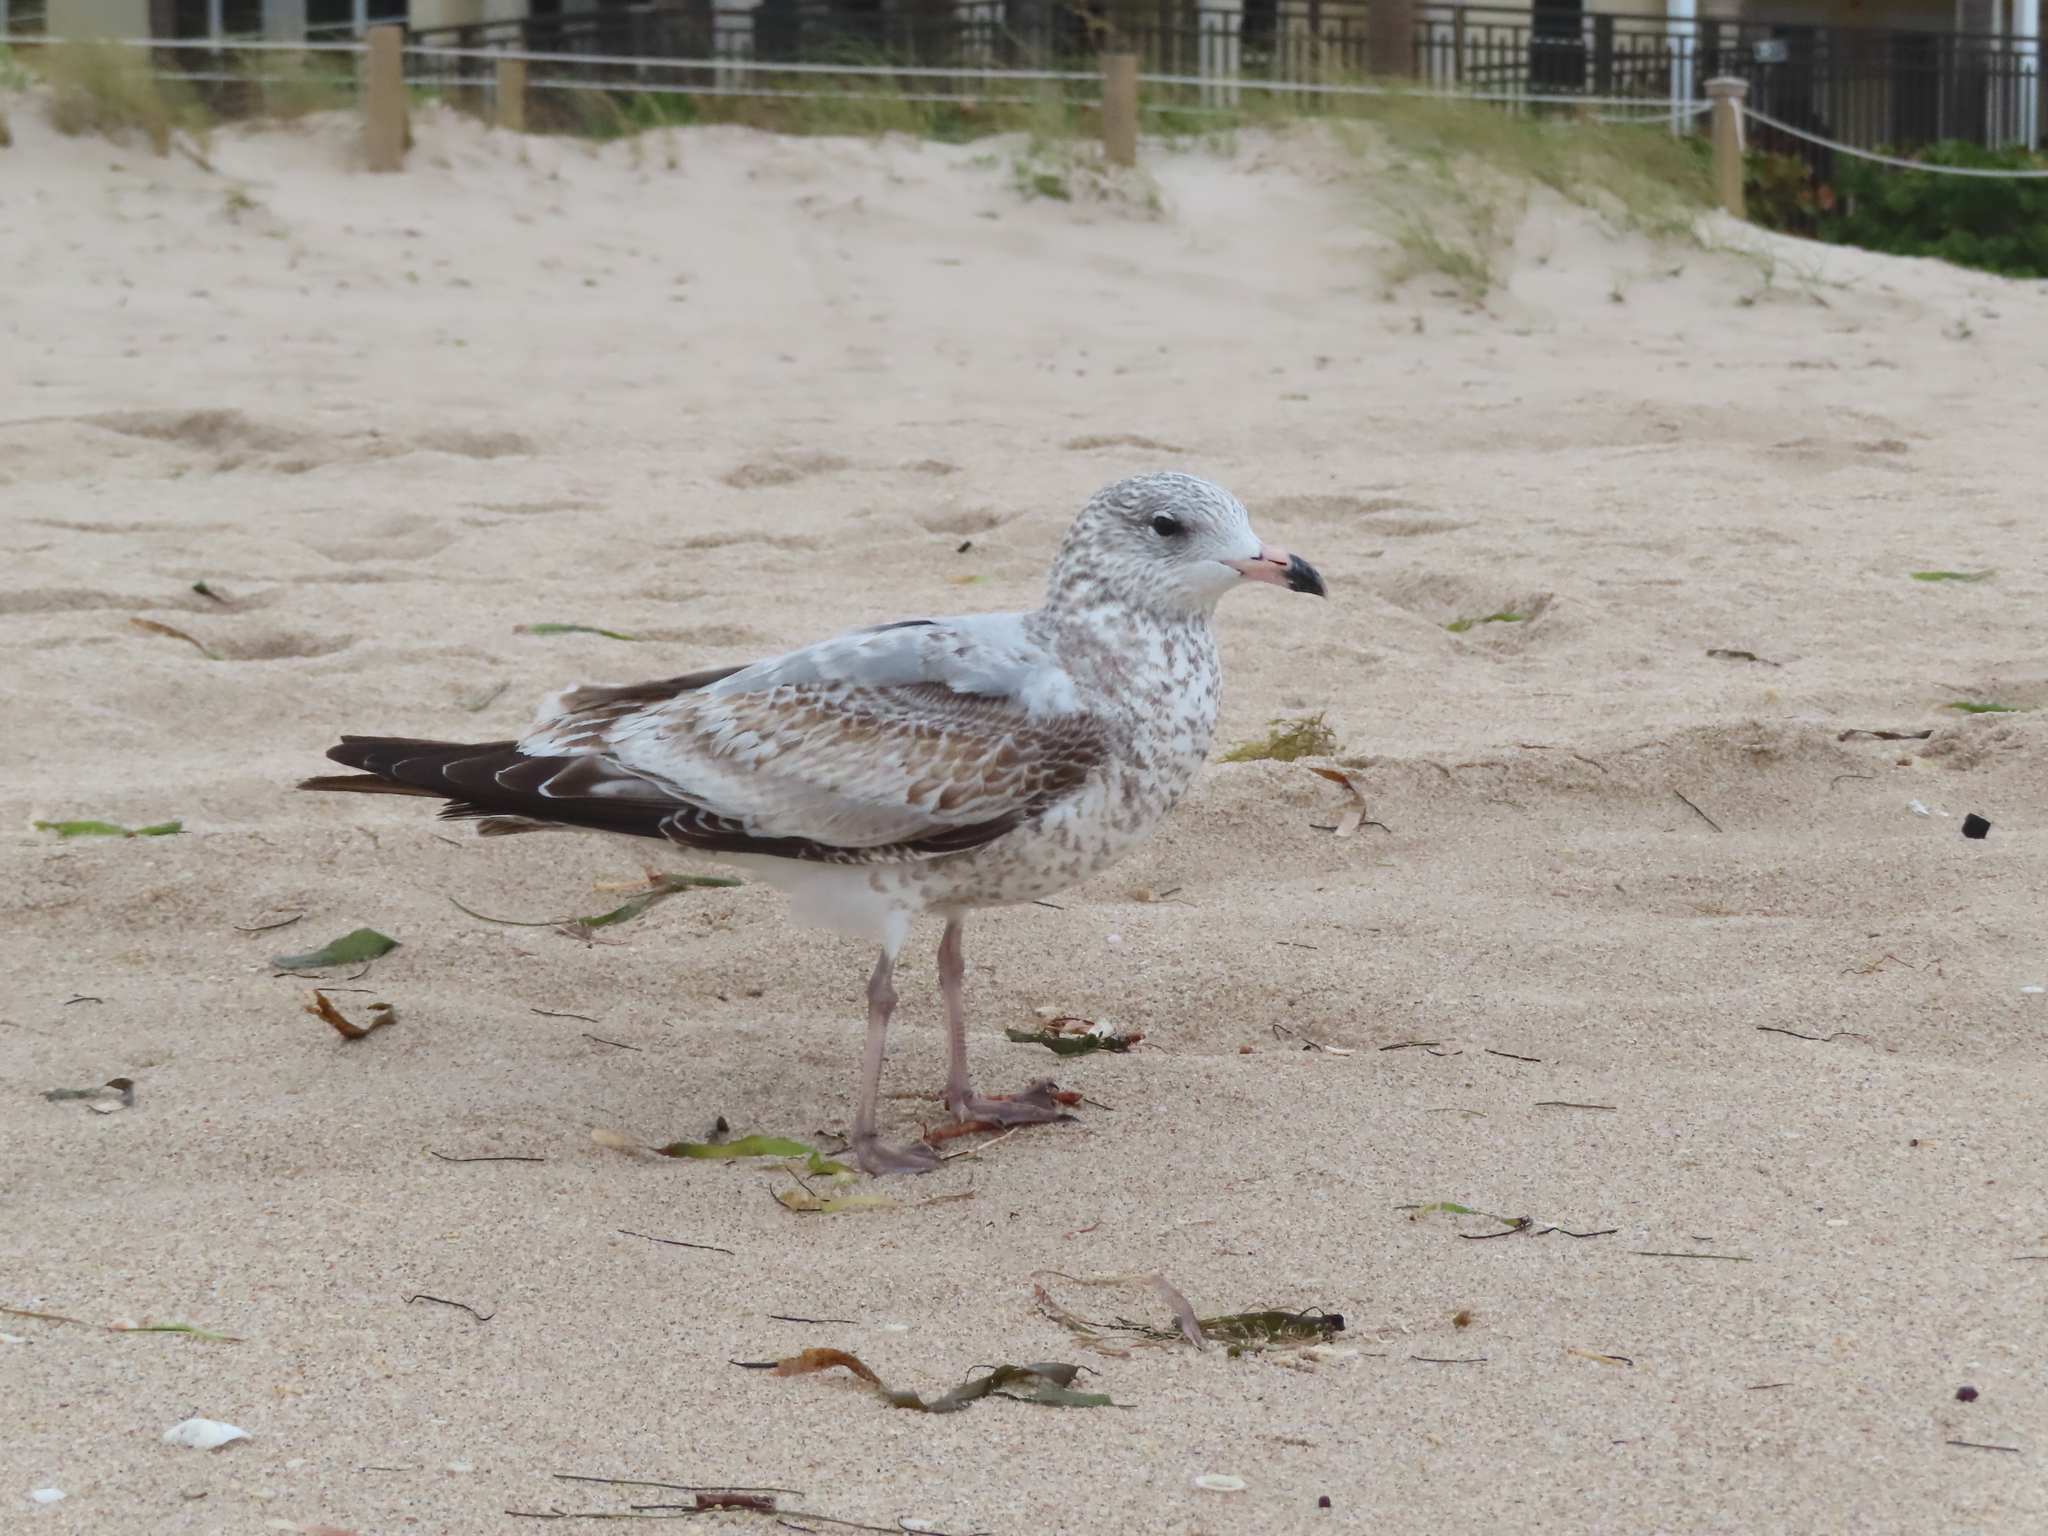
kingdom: Animalia
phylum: Chordata
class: Aves
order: Charadriiformes
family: Laridae
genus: Larus
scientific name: Larus delawarensis
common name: Ring-billed gull
